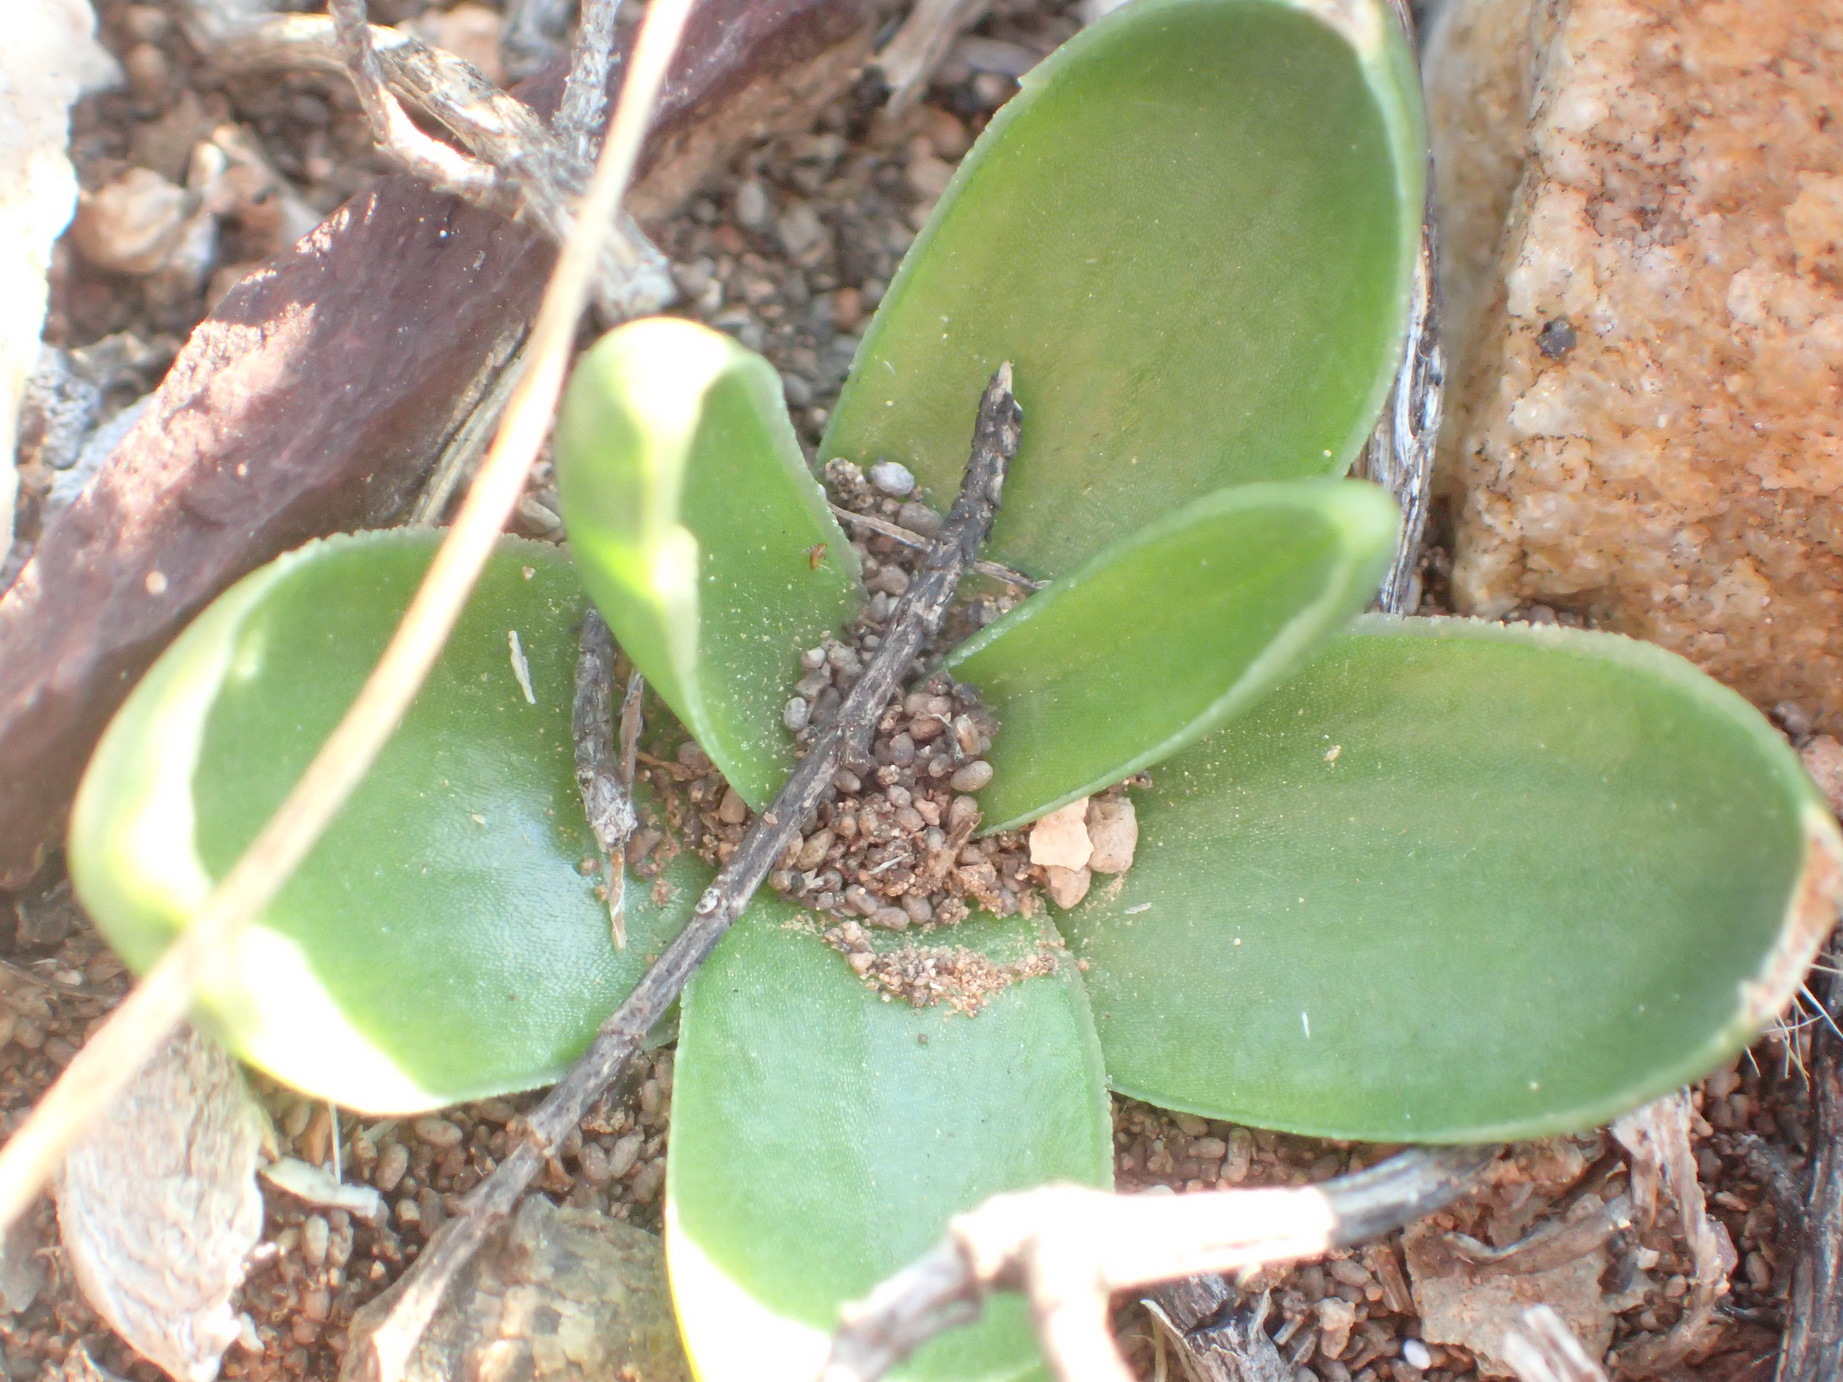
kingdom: Plantae
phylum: Tracheophyta
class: Liliopsida
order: Asparagales
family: Asparagaceae
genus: Drimia
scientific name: Drimia cochlearis
